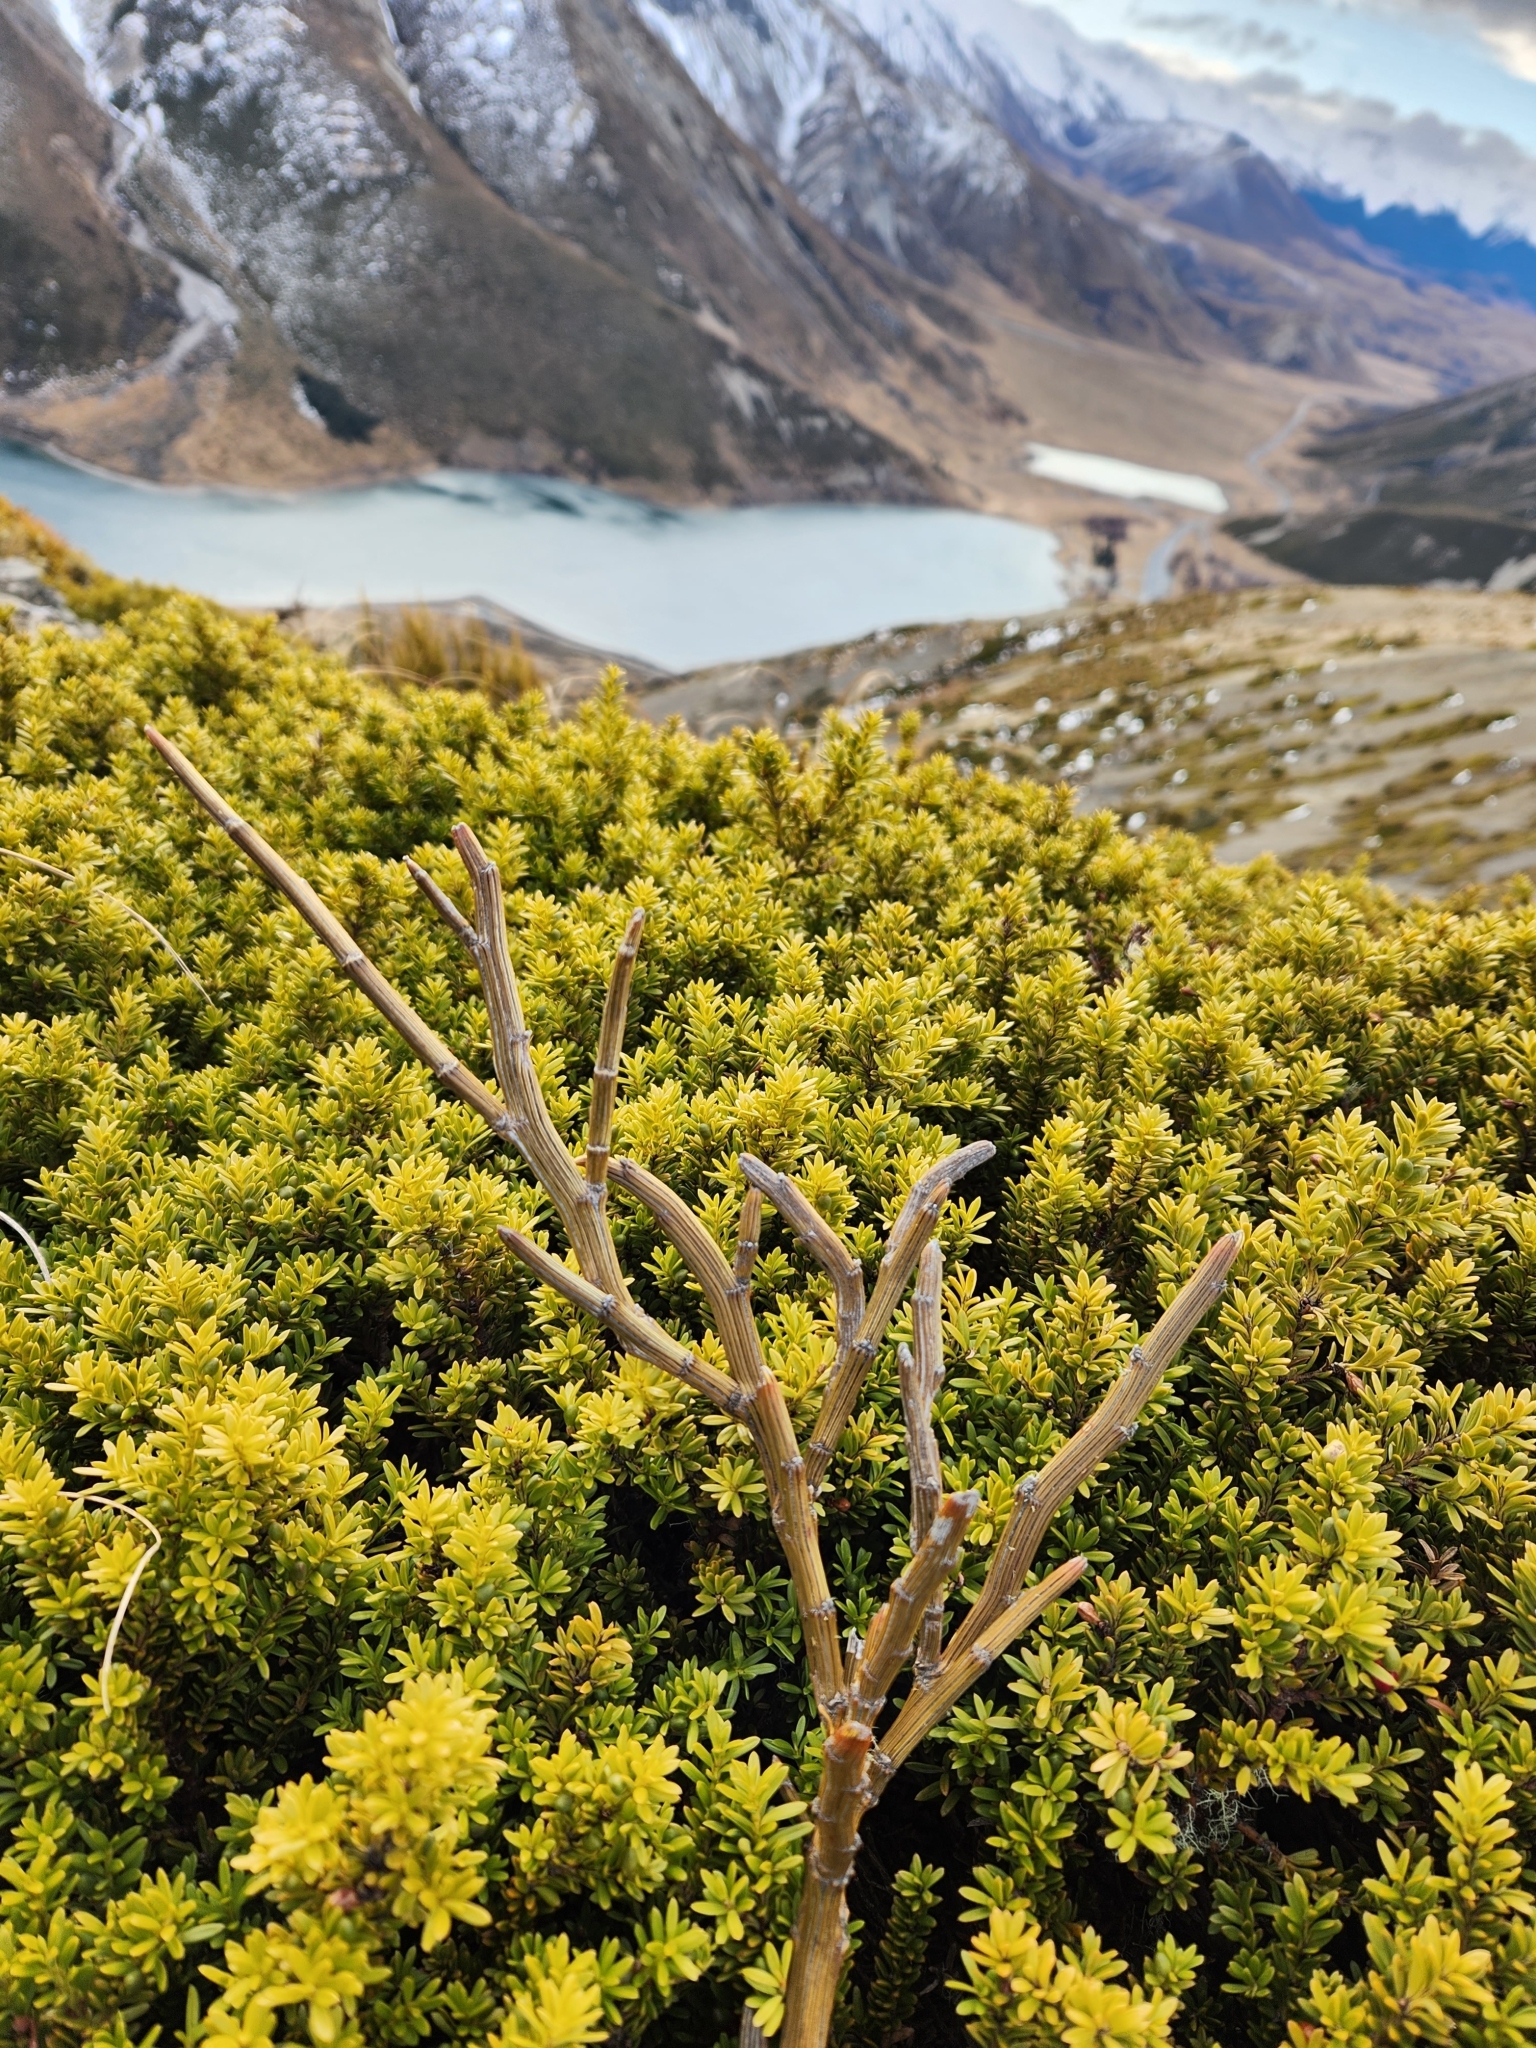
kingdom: Plantae
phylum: Tracheophyta
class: Magnoliopsida
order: Fabales
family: Fabaceae
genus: Carmichaelia
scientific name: Carmichaelia crassicaulis
